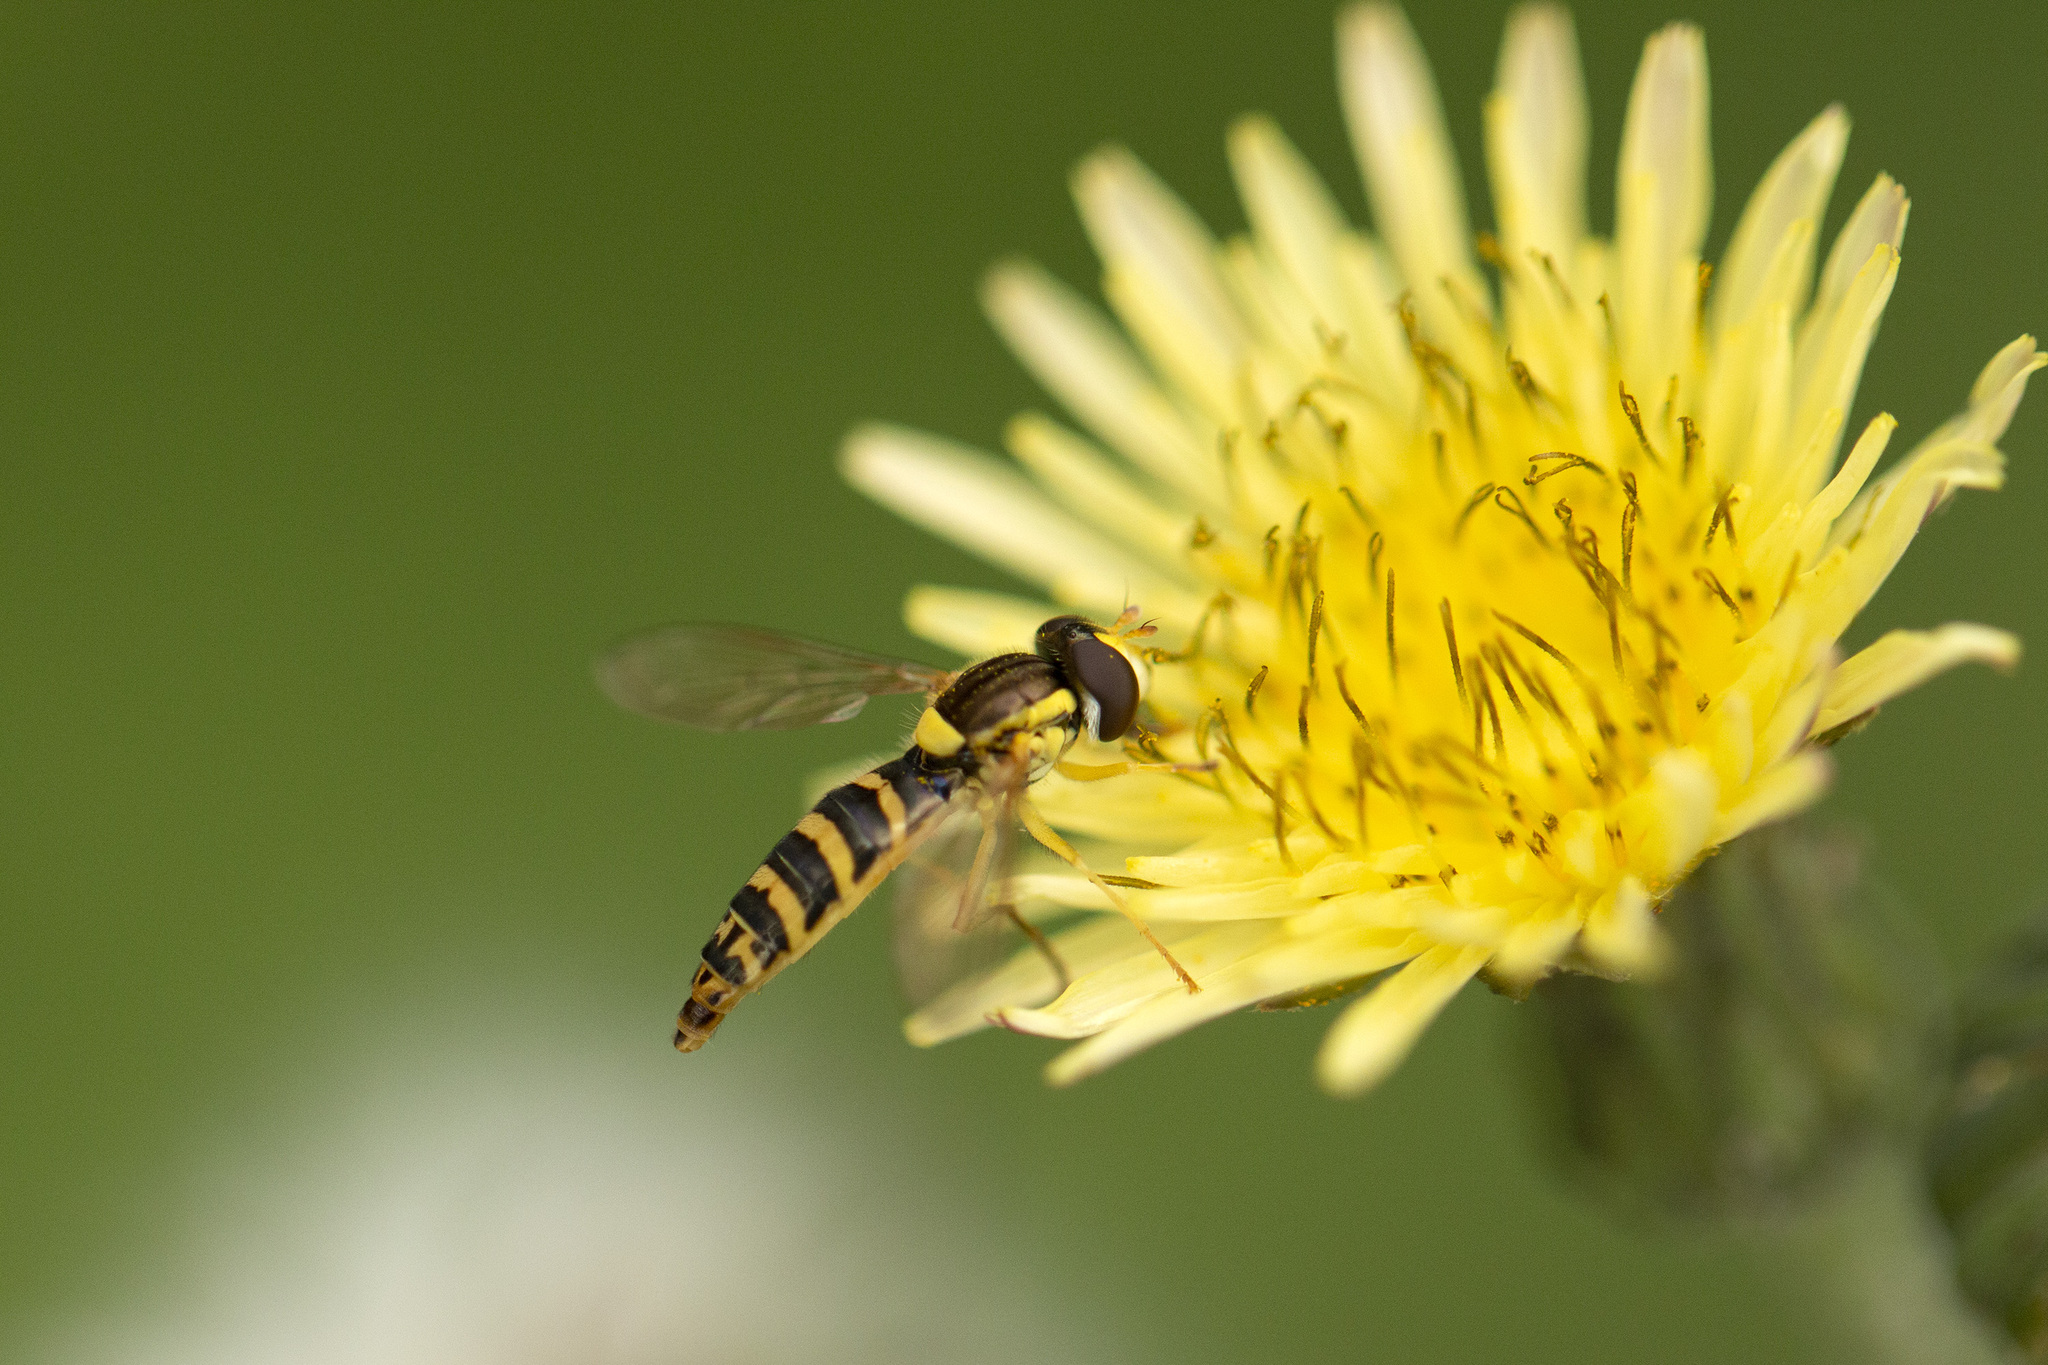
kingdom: Animalia
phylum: Arthropoda
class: Insecta
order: Diptera
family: Syrphidae
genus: Sphaerophoria
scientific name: Sphaerophoria
